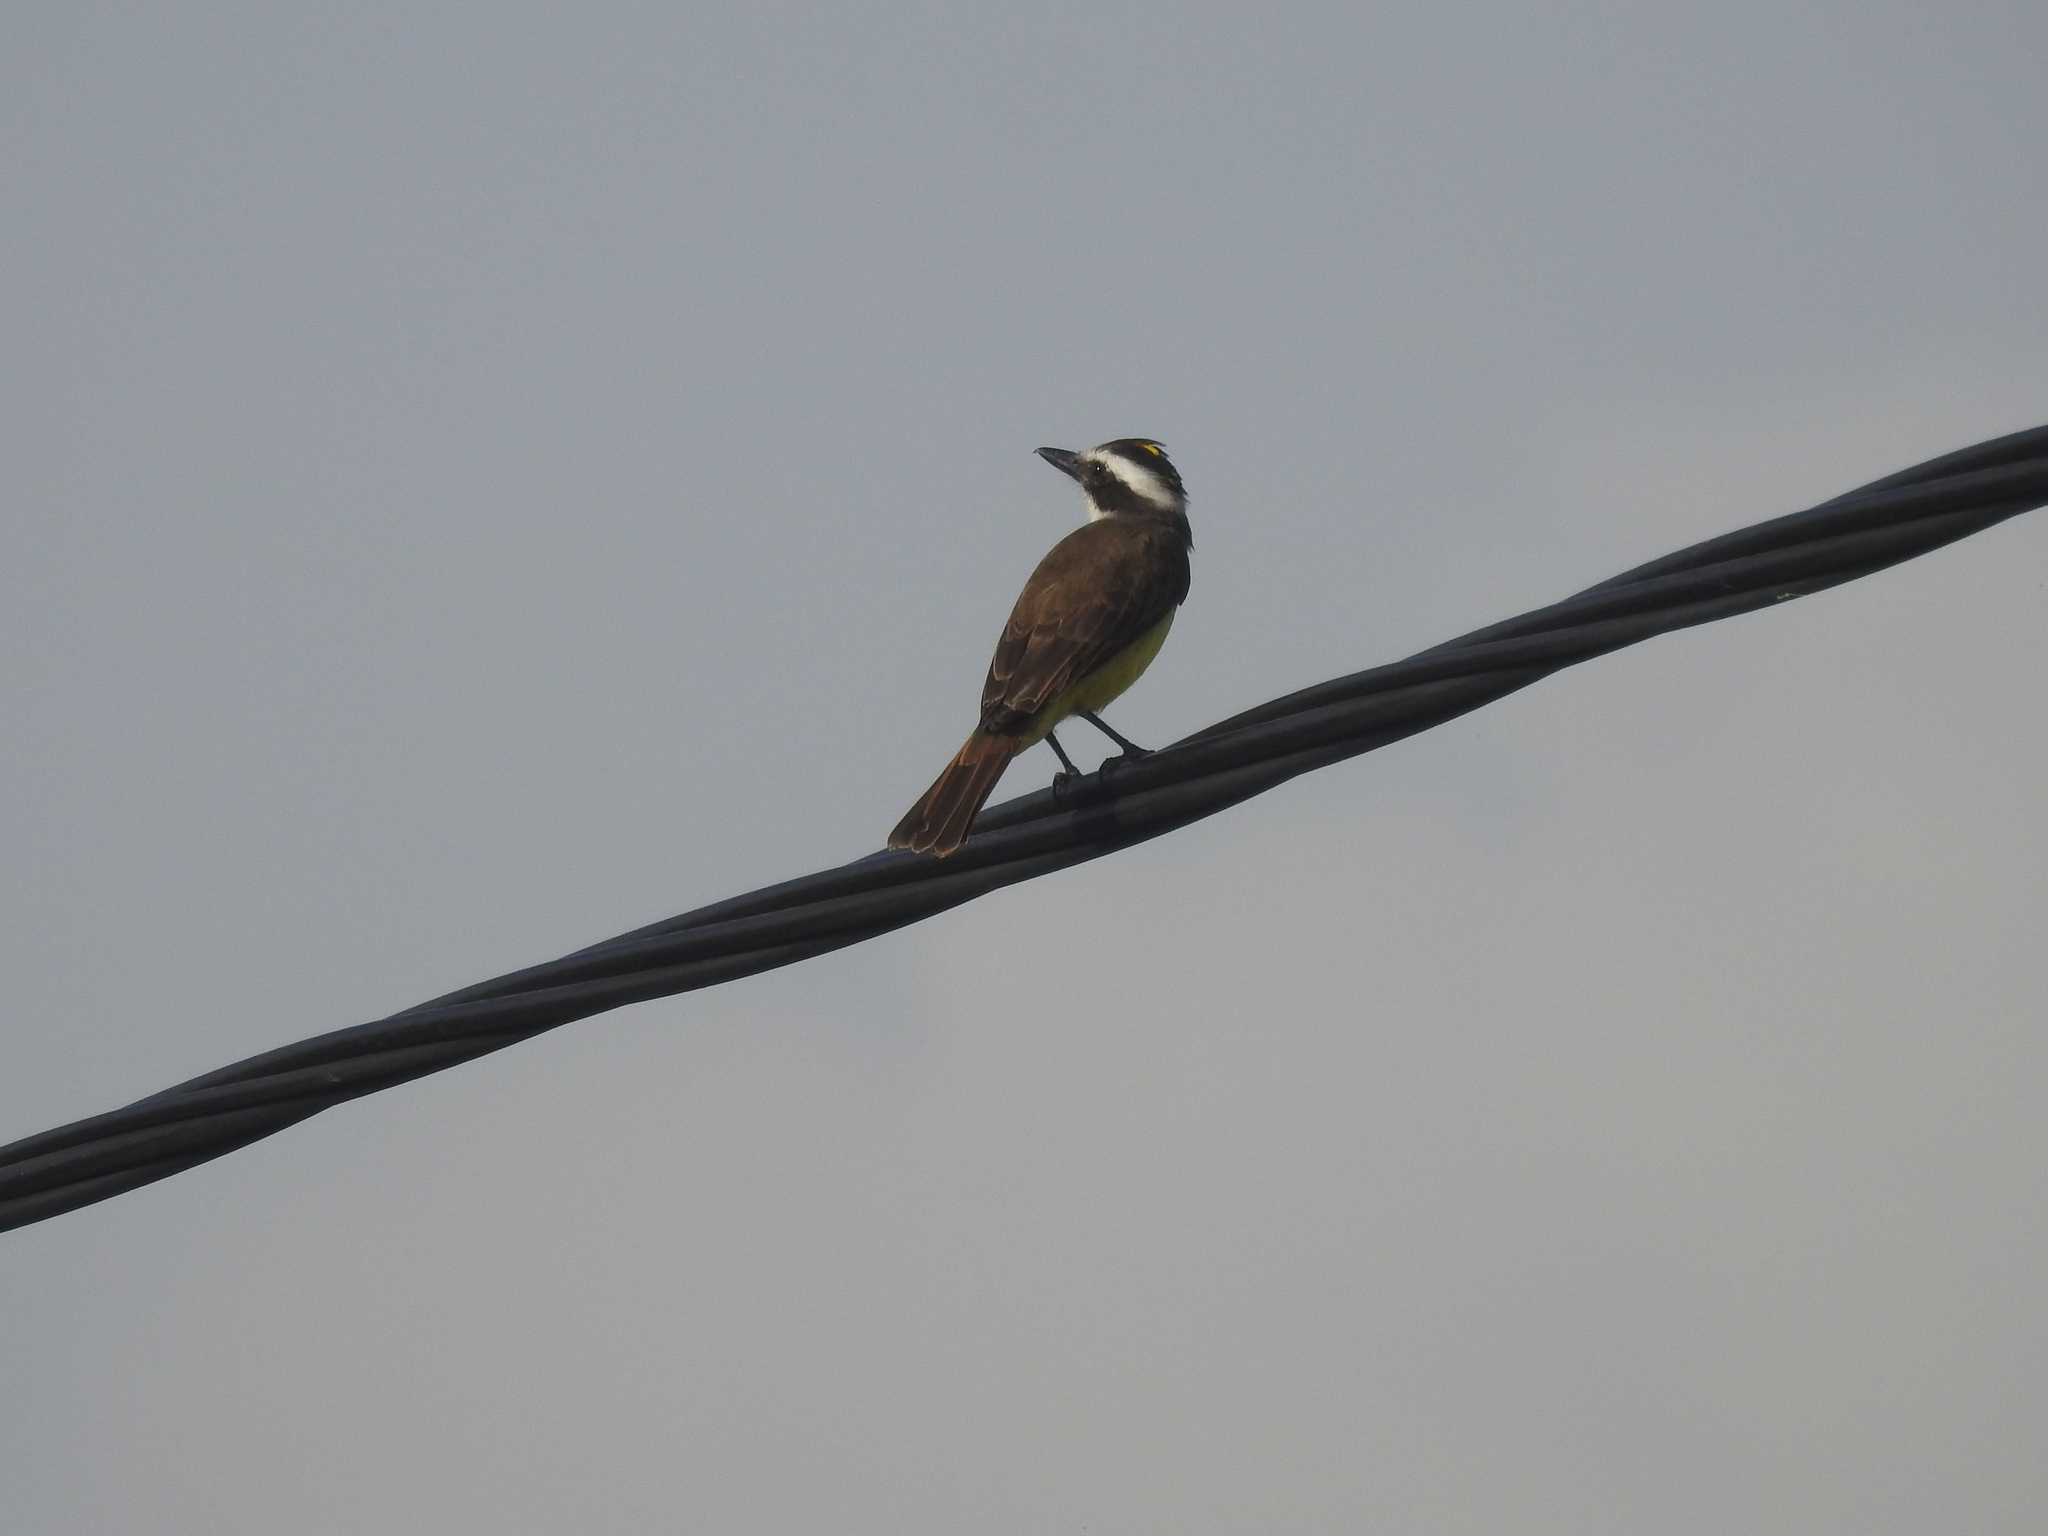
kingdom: Animalia
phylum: Chordata
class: Aves
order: Passeriformes
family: Tyrannidae
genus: Pitangus
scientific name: Pitangus sulphuratus
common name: Great kiskadee
